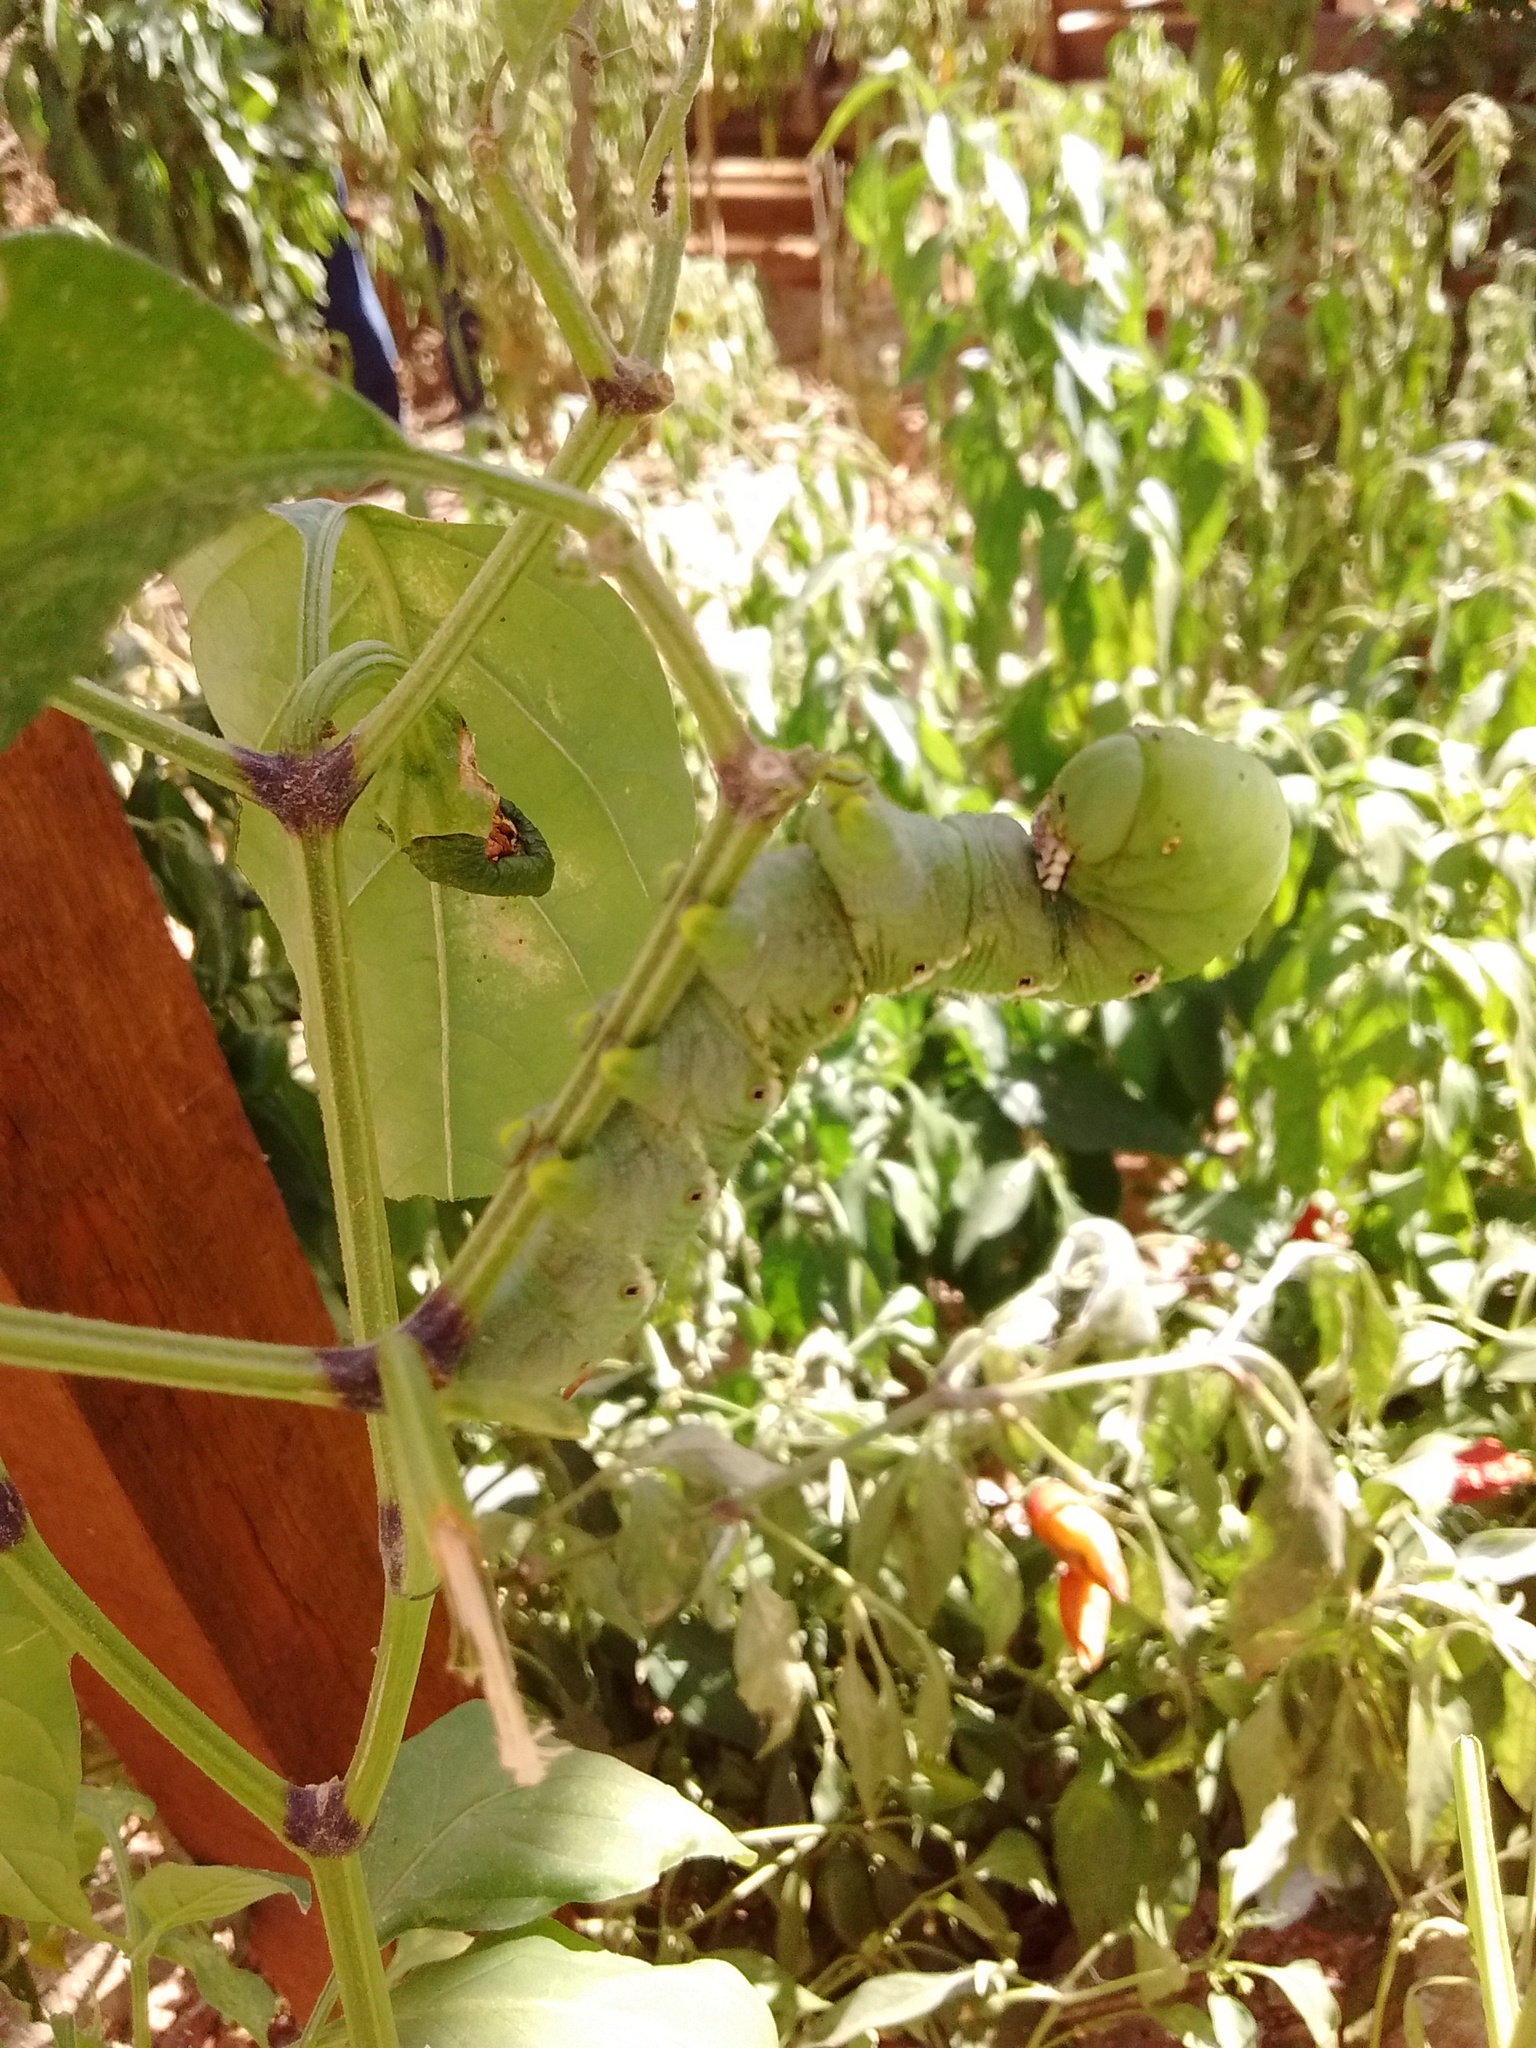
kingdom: Animalia
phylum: Arthropoda
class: Insecta
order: Lepidoptera
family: Sphingidae
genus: Manduca
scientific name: Manduca sexta
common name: Carolina sphinx
